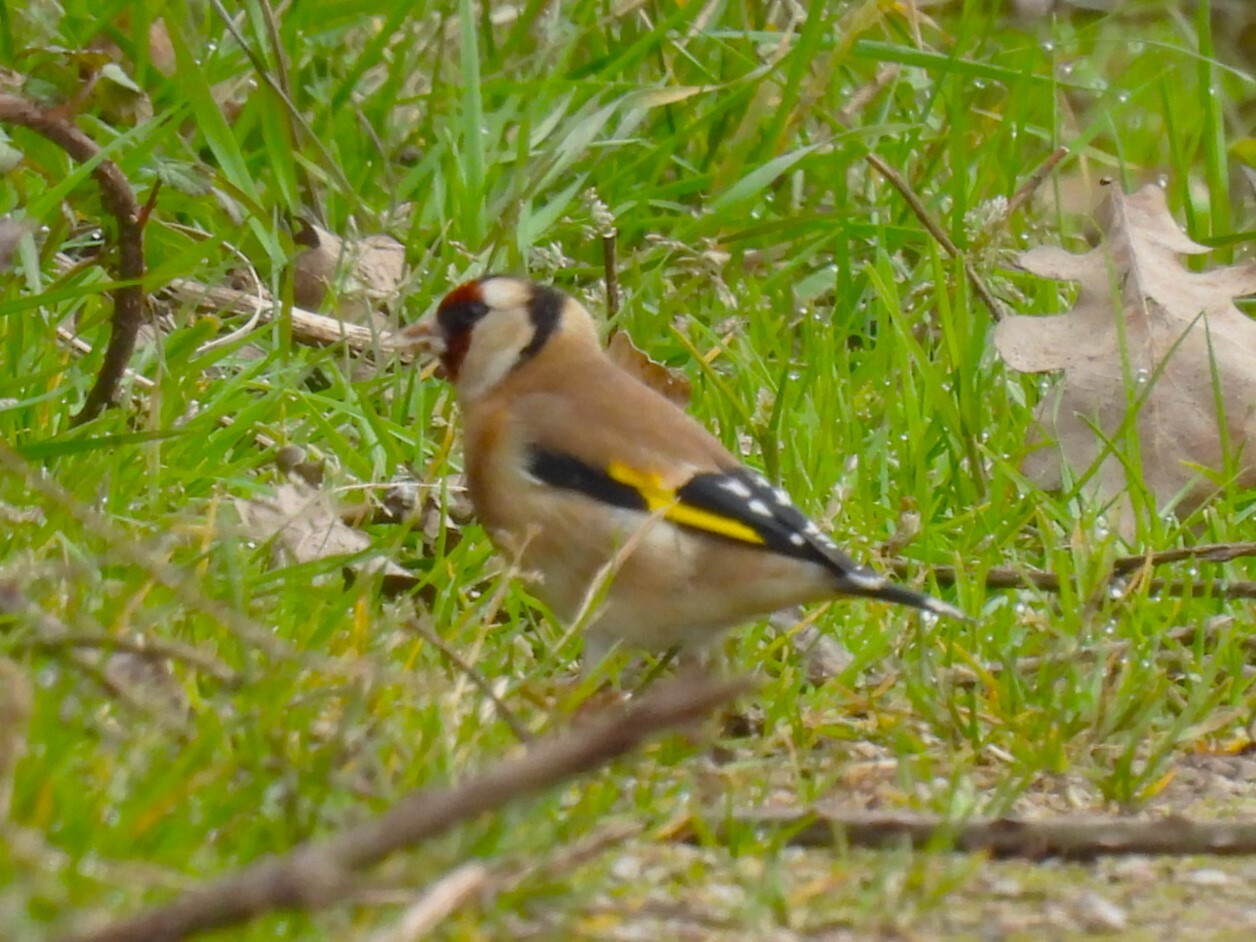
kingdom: Animalia
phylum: Chordata
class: Aves
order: Passeriformes
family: Fringillidae
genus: Carduelis
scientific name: Carduelis carduelis
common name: European goldfinch
